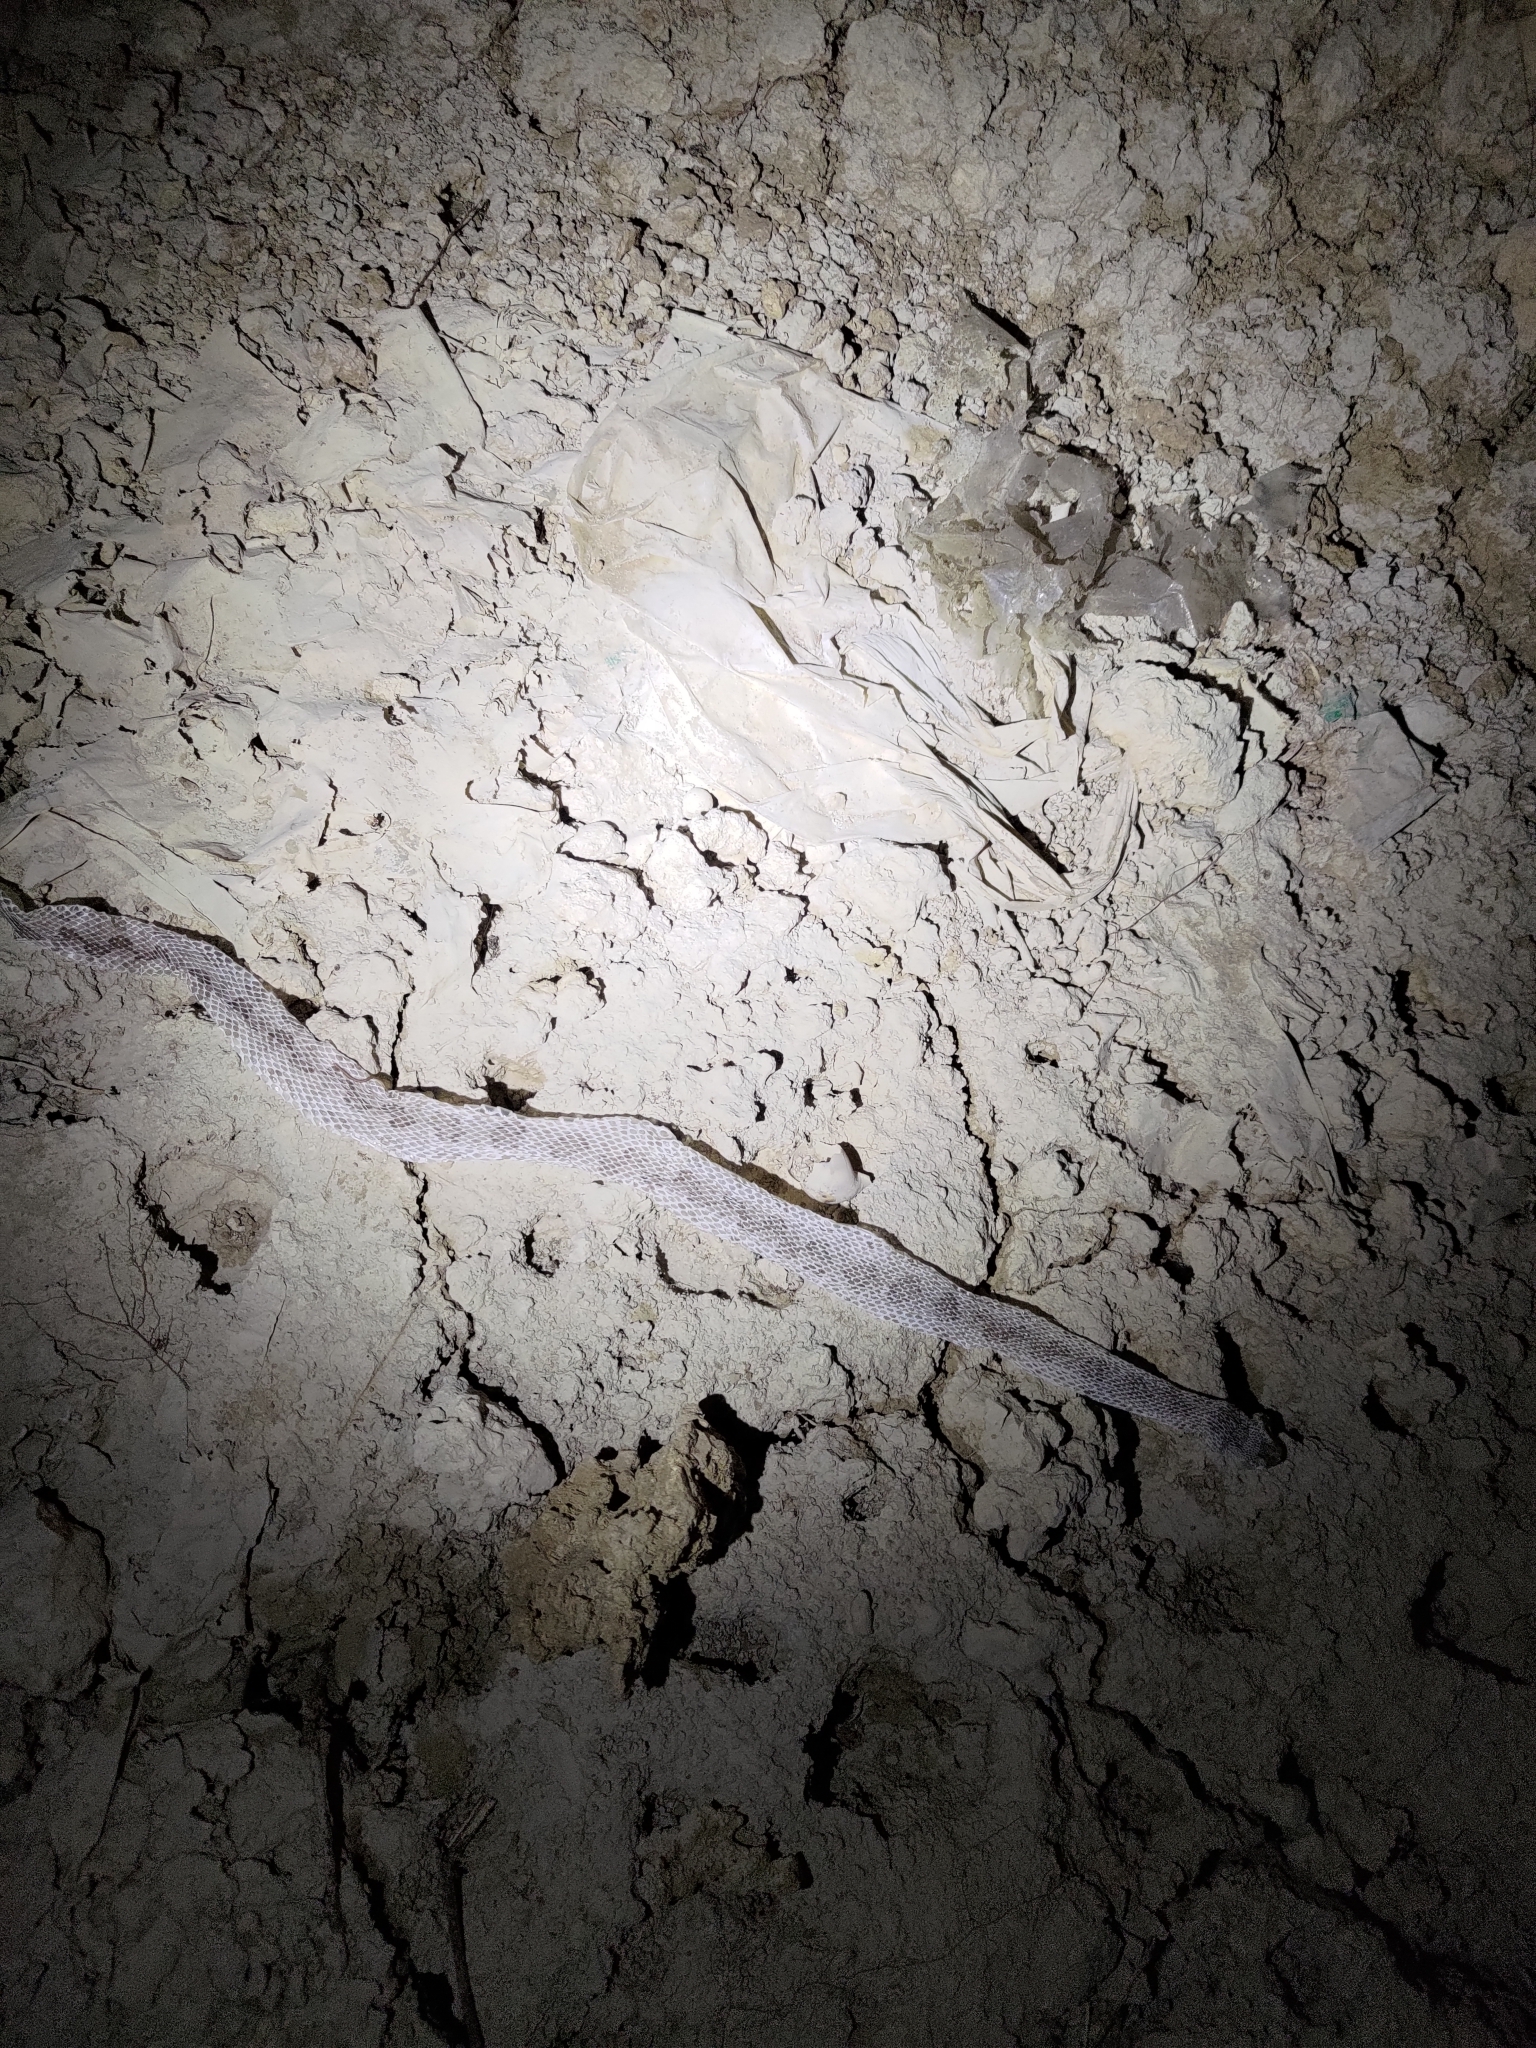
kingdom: Animalia
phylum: Chordata
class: Squamata
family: Viperidae
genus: Protobothrops
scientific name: Protobothrops mucrosquamatus
